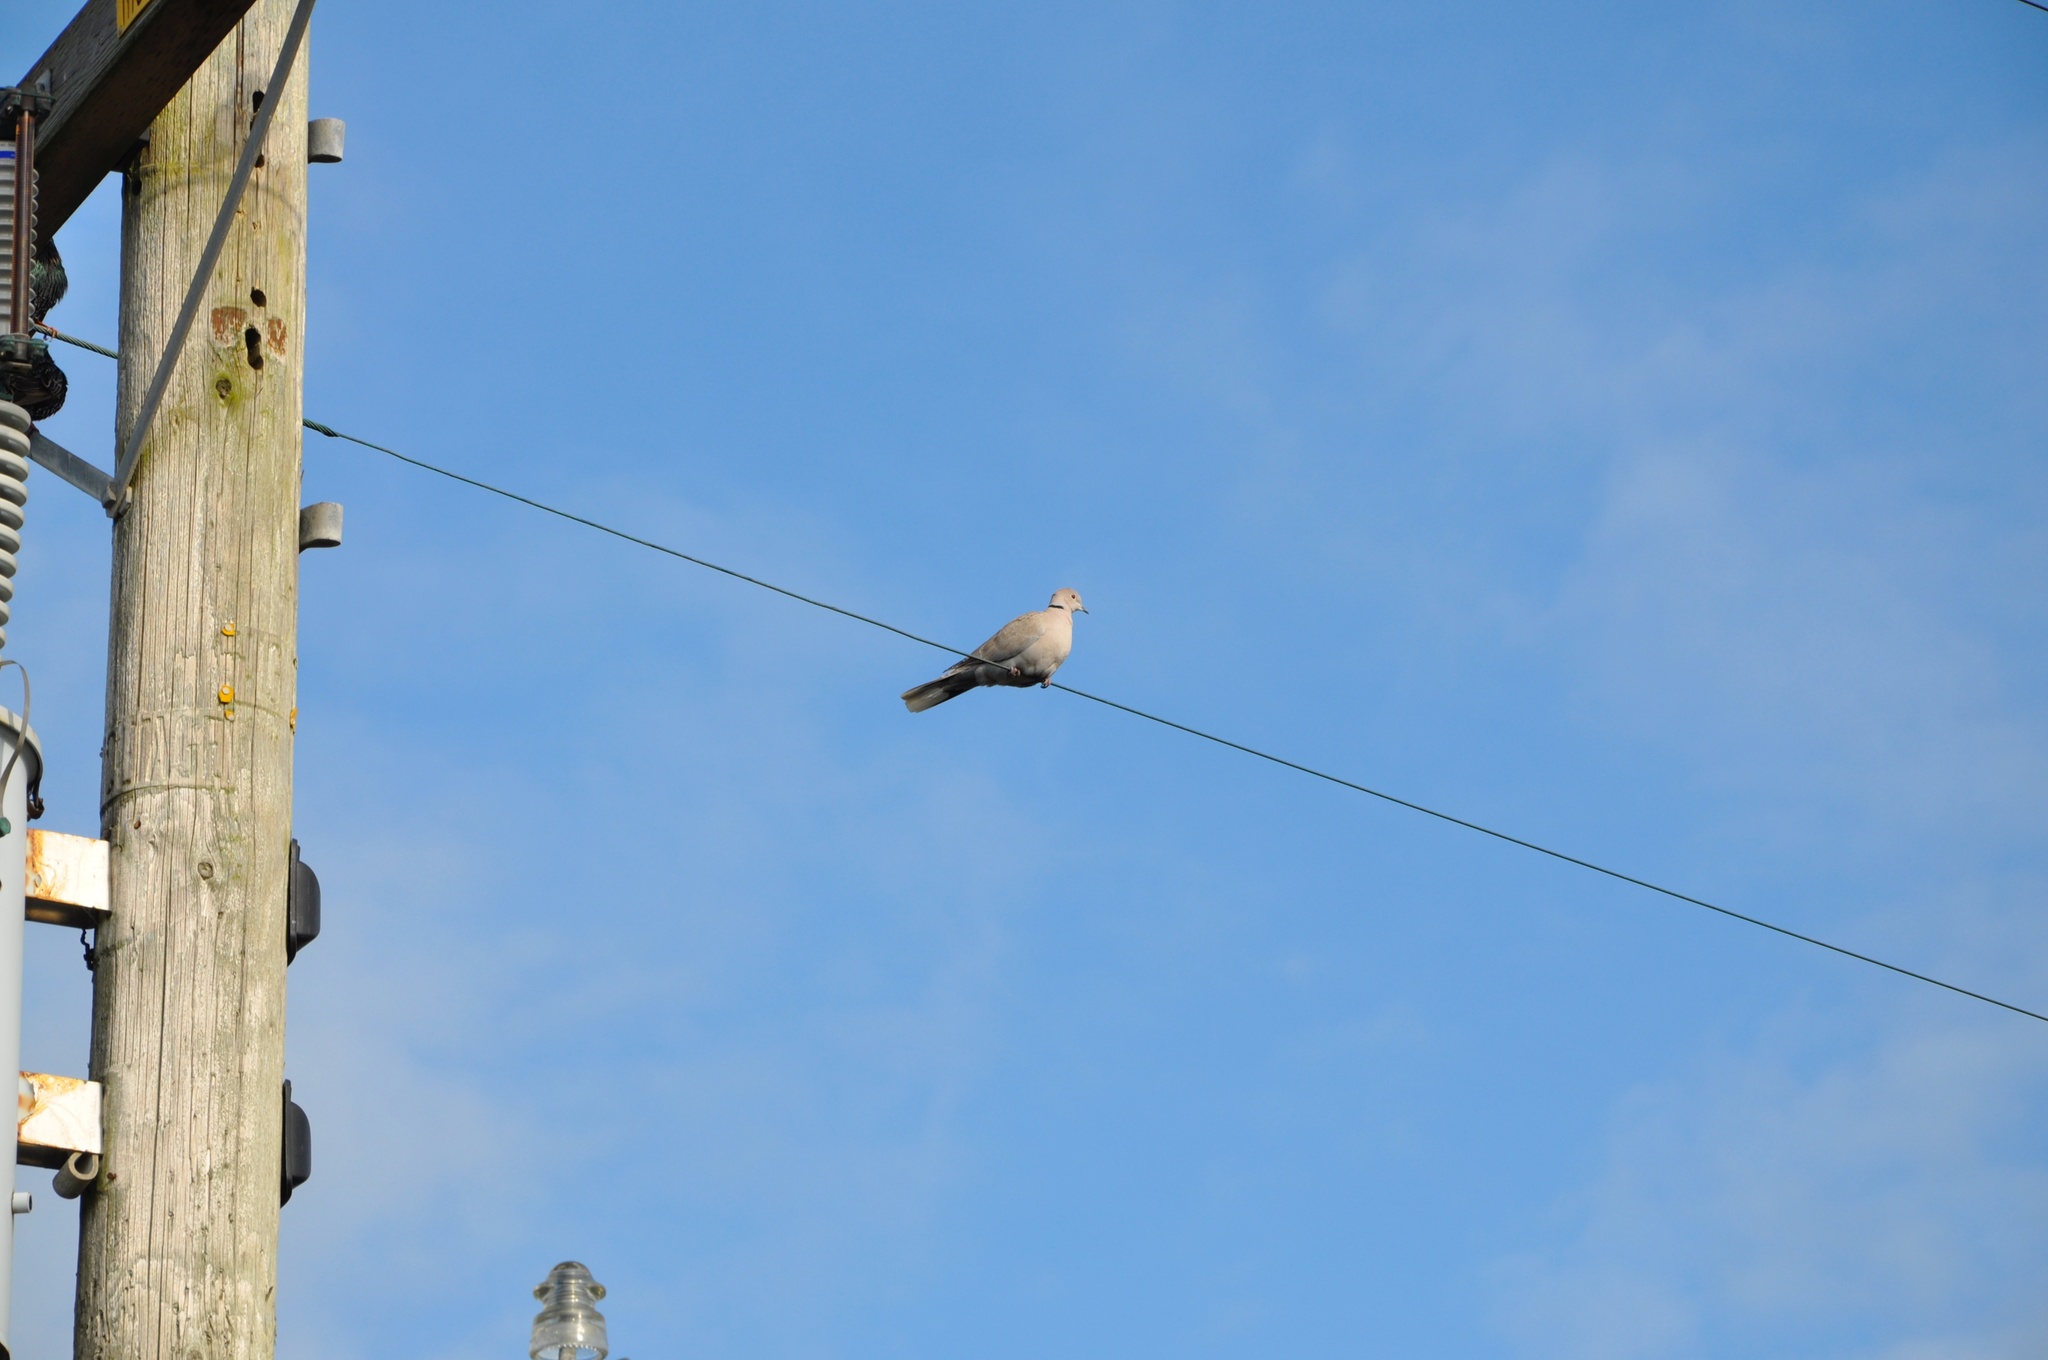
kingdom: Animalia
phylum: Chordata
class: Aves
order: Columbiformes
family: Columbidae
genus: Streptopelia
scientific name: Streptopelia decaocto
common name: Eurasian collared dove
